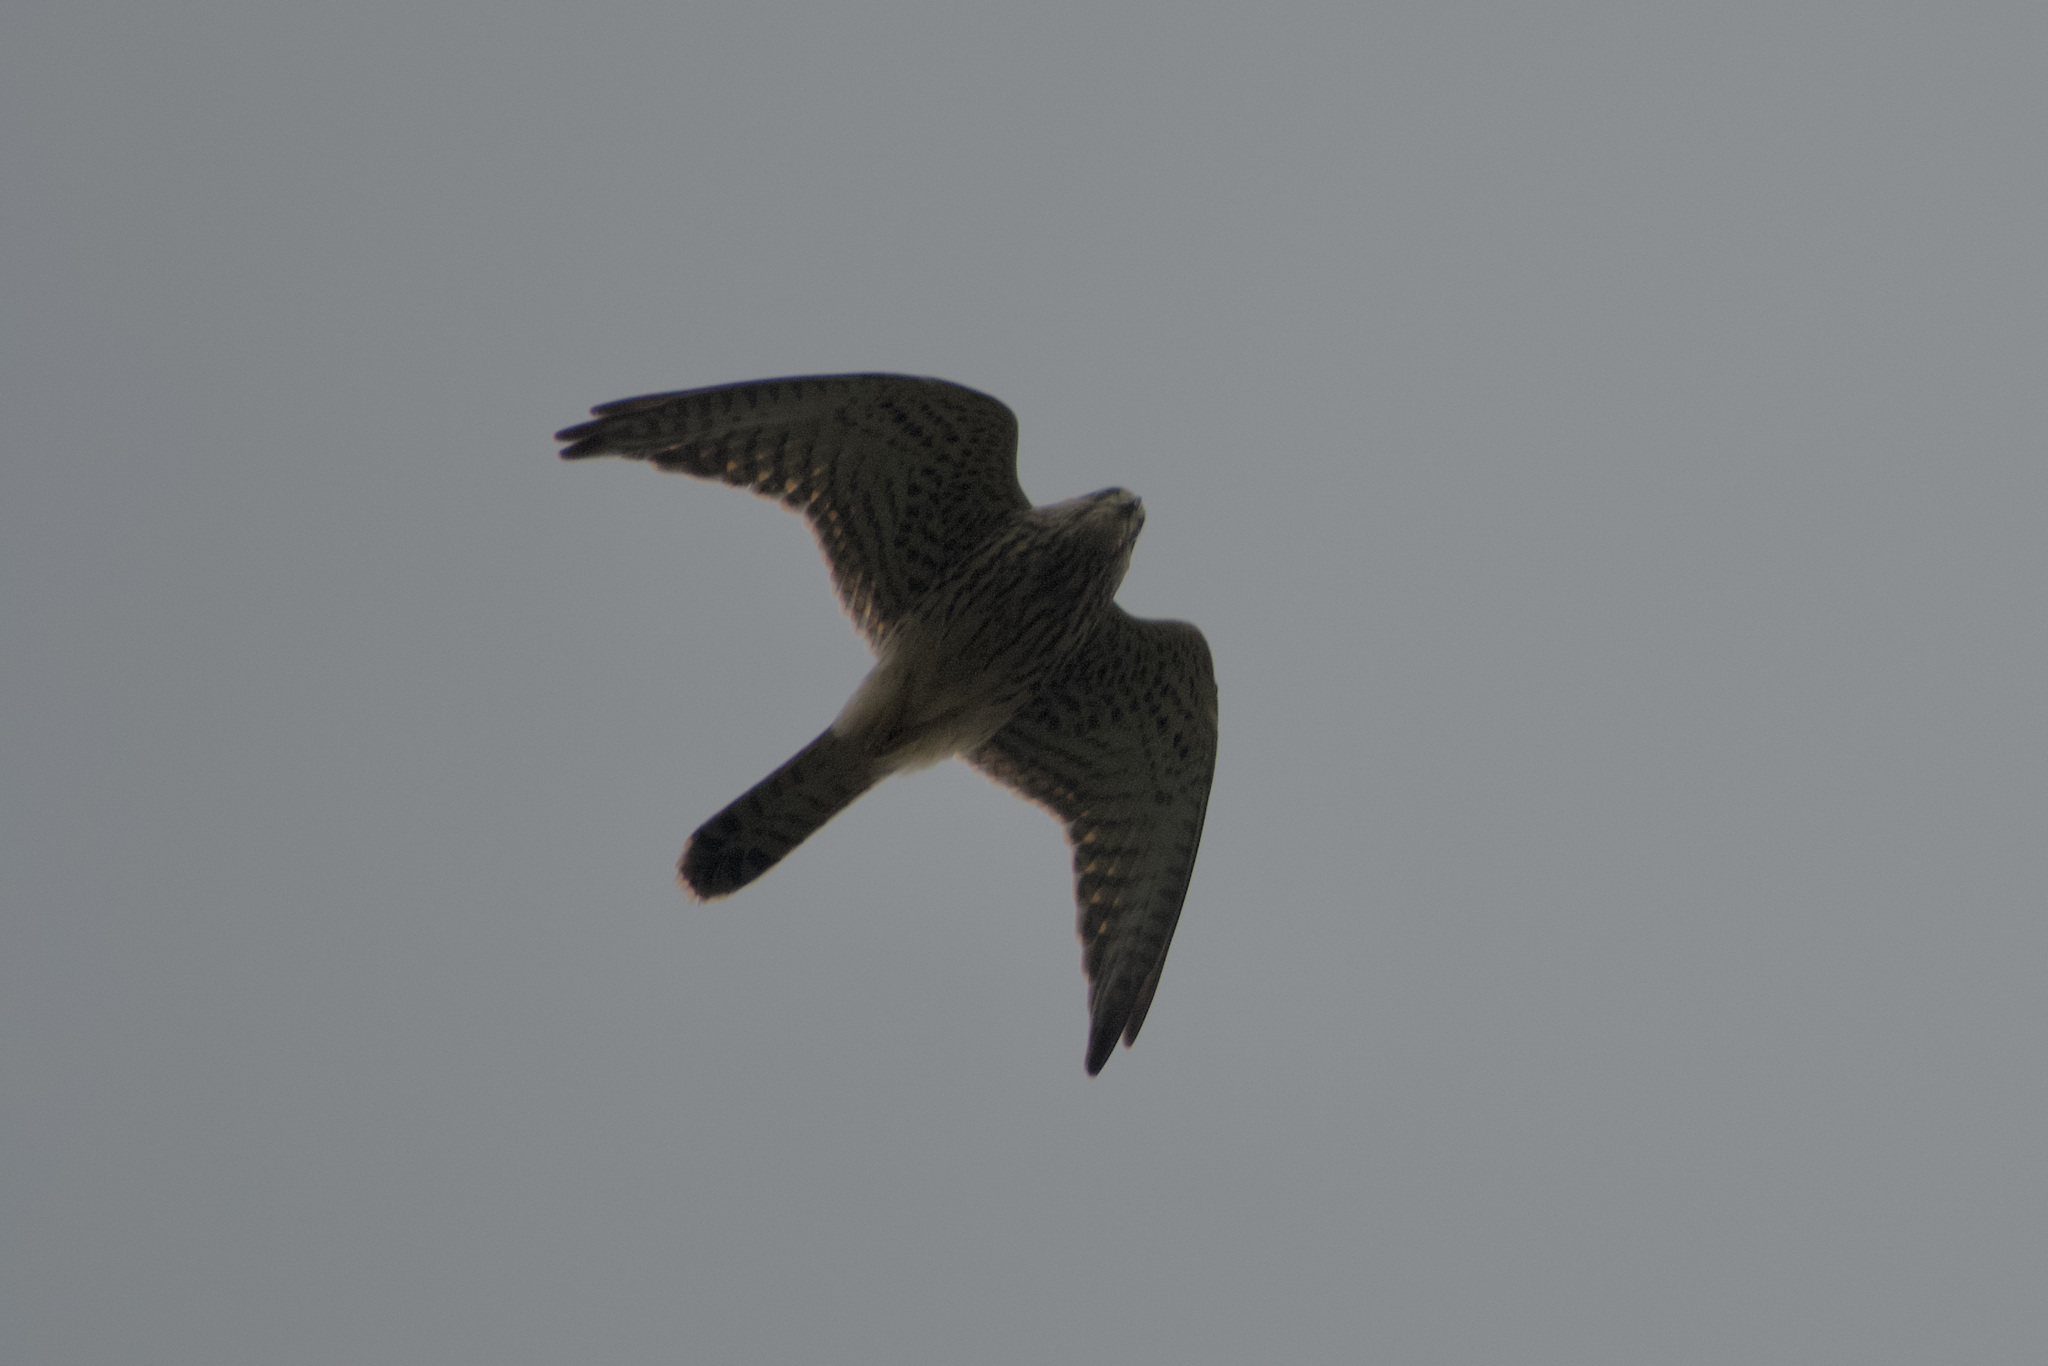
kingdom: Animalia
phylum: Chordata
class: Aves
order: Falconiformes
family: Falconidae
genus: Falco
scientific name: Falco tinnunculus
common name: Common kestrel
